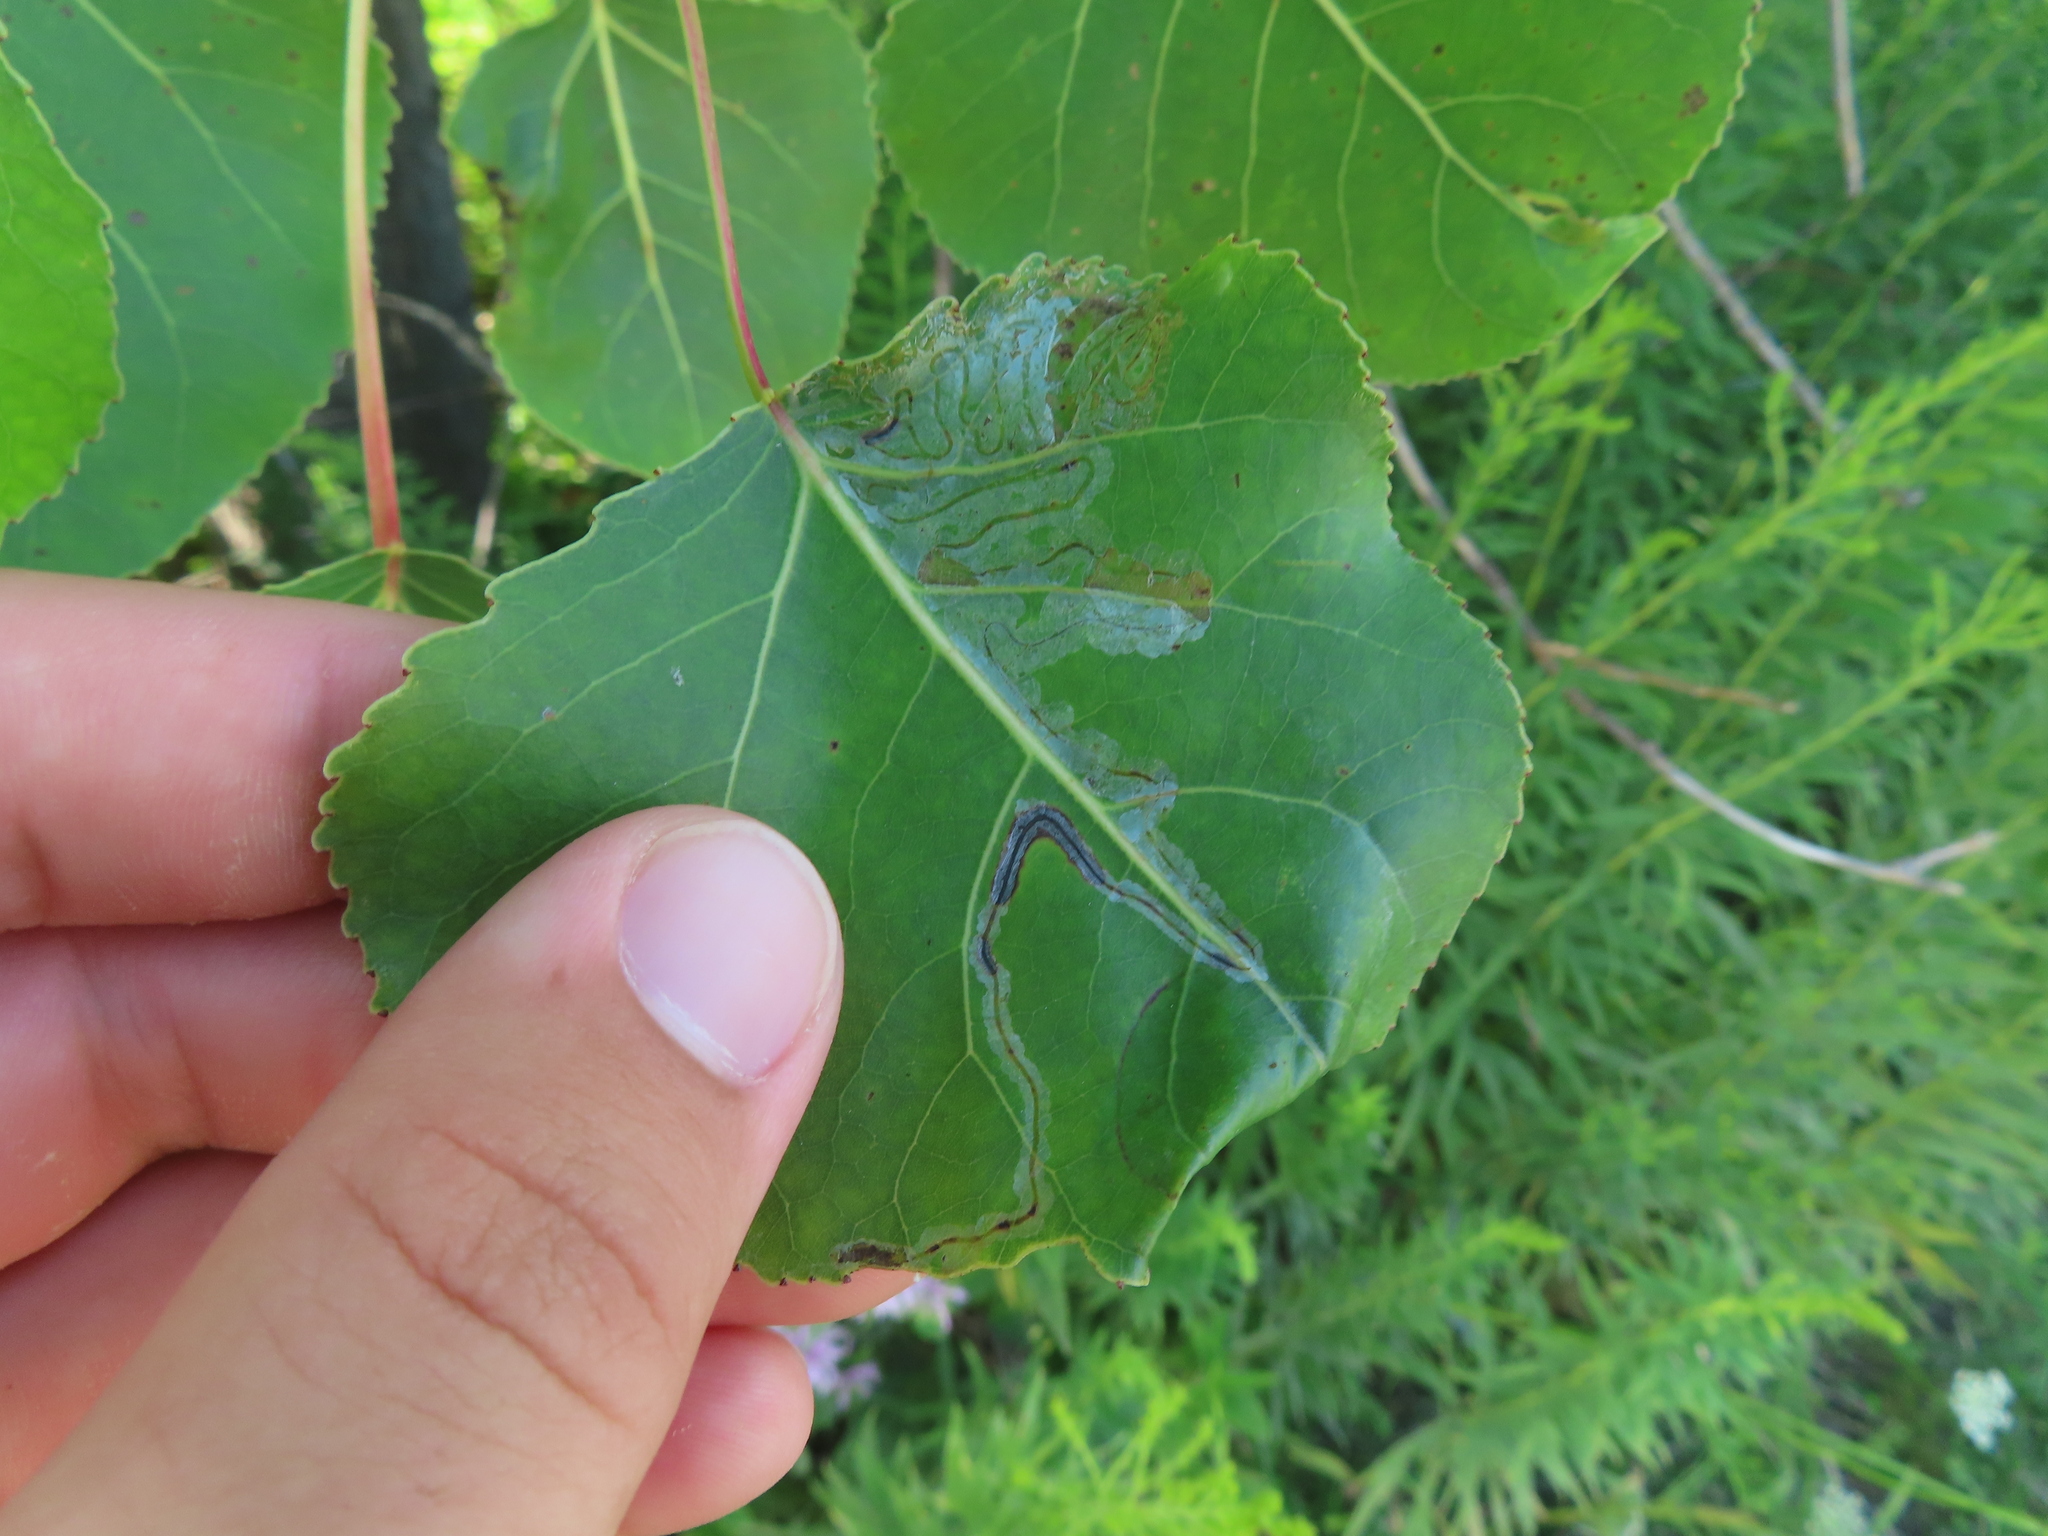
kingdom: Animalia
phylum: Arthropoda
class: Insecta
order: Lepidoptera
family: Gracillariidae
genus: Phyllocnistis
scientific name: Phyllocnistis populiella
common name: Aspen serpentine leafminer moth
